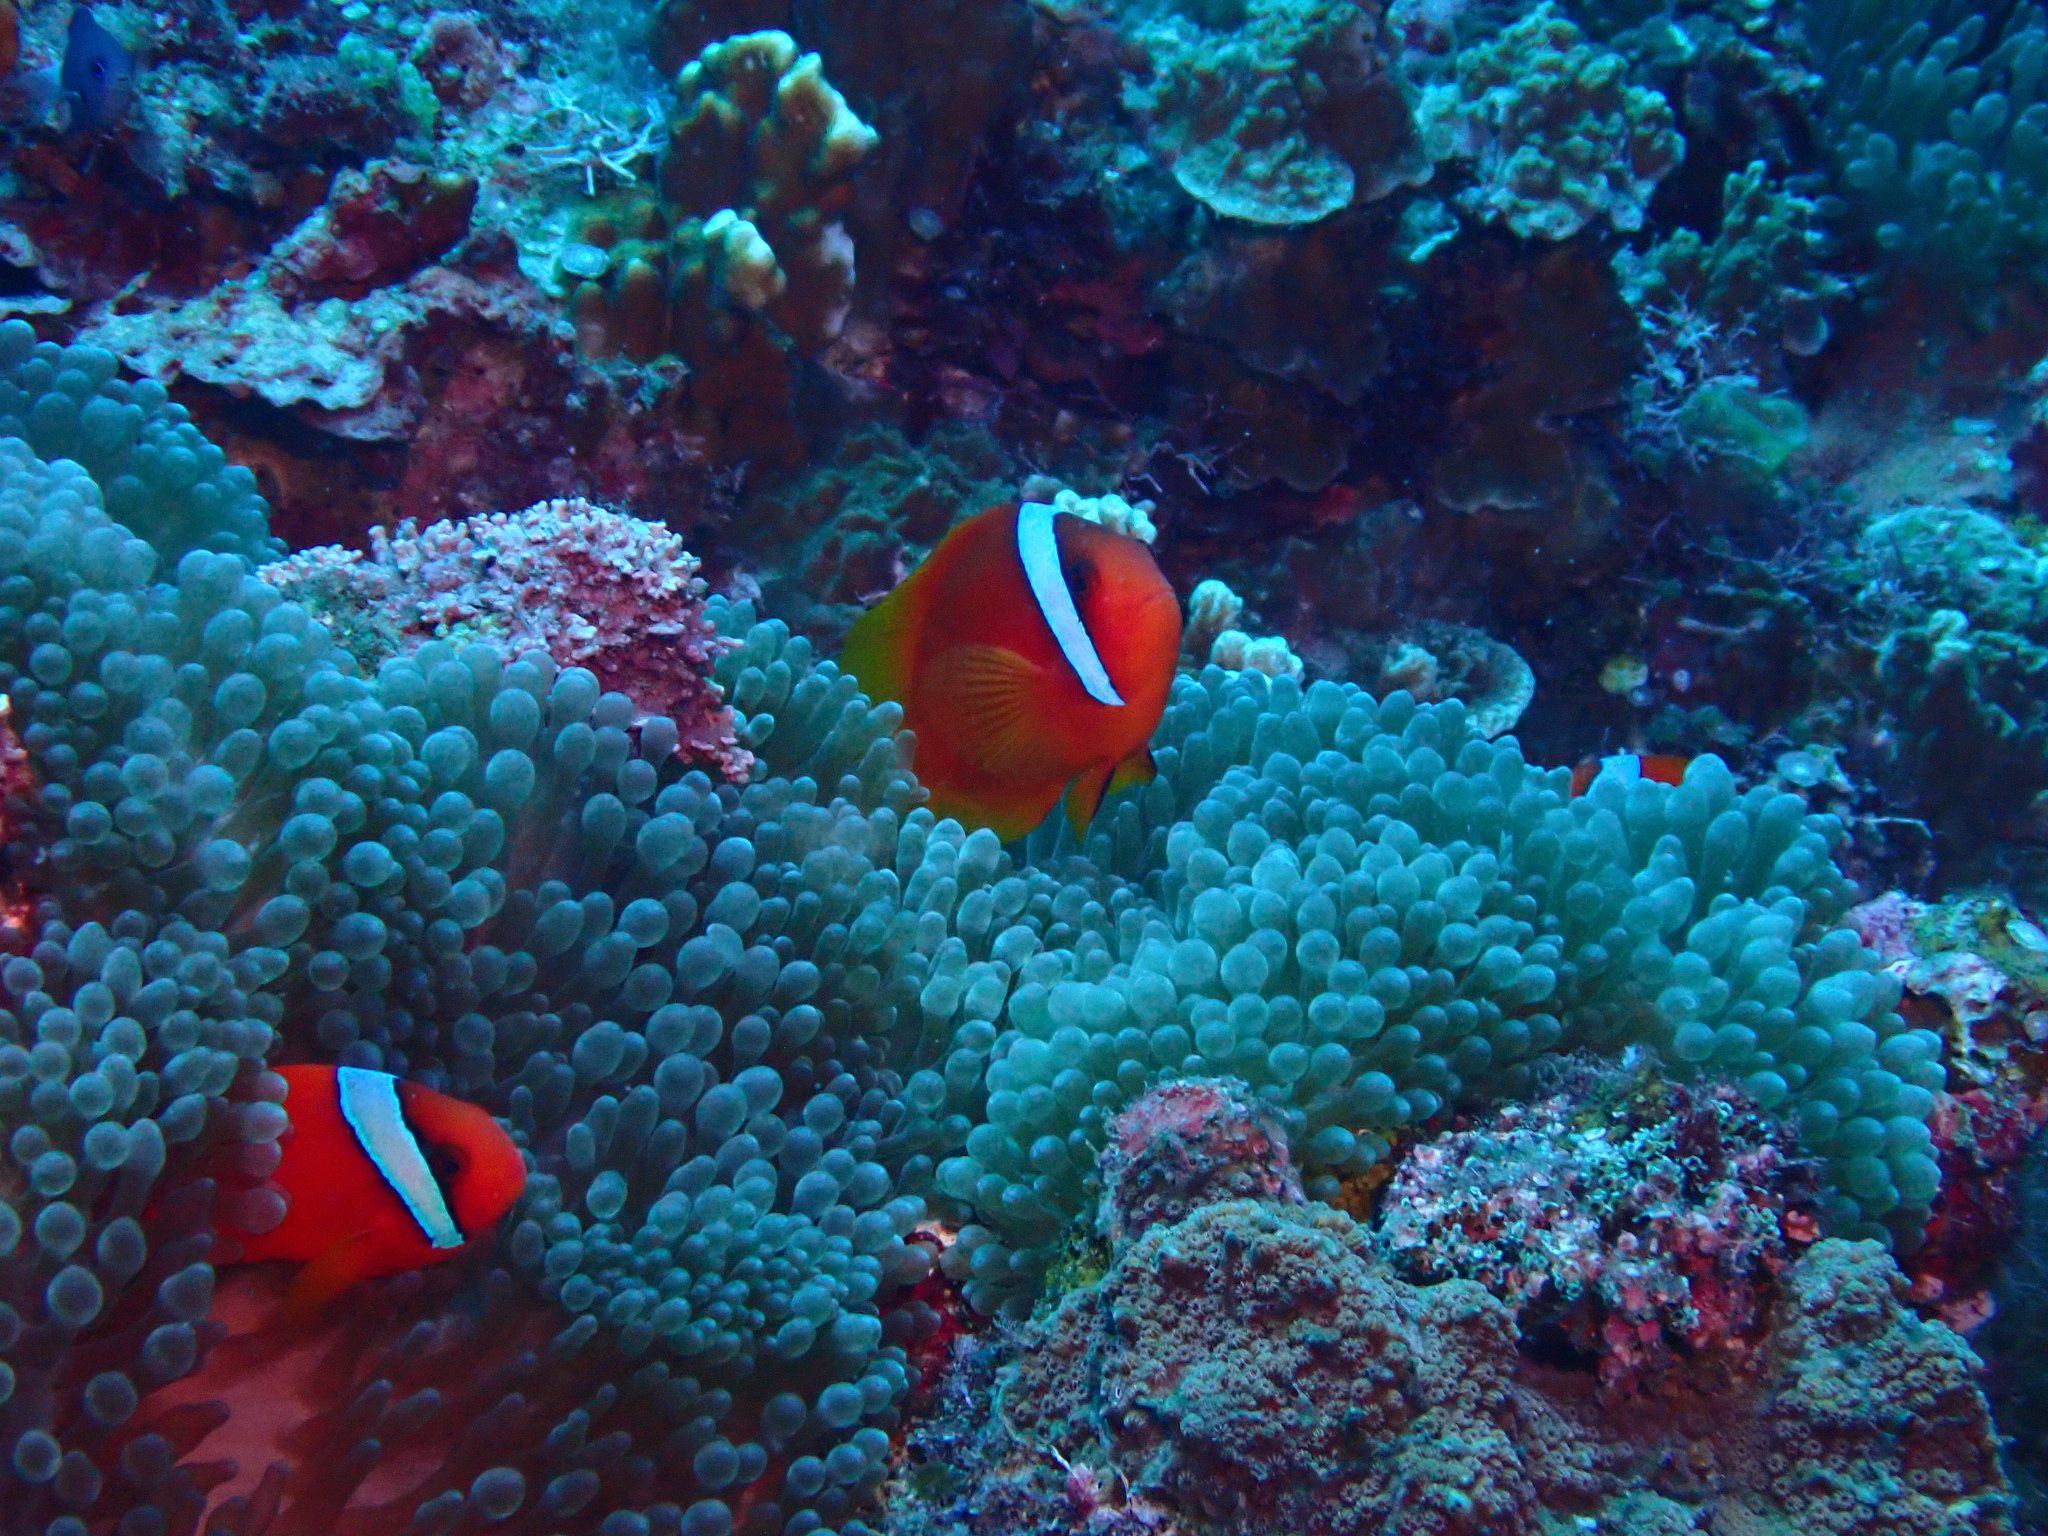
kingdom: Animalia
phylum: Chordata
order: Perciformes
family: Pomacentridae
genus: Amphiprion
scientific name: Amphiprion frenatus
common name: Tomato anemonefish
